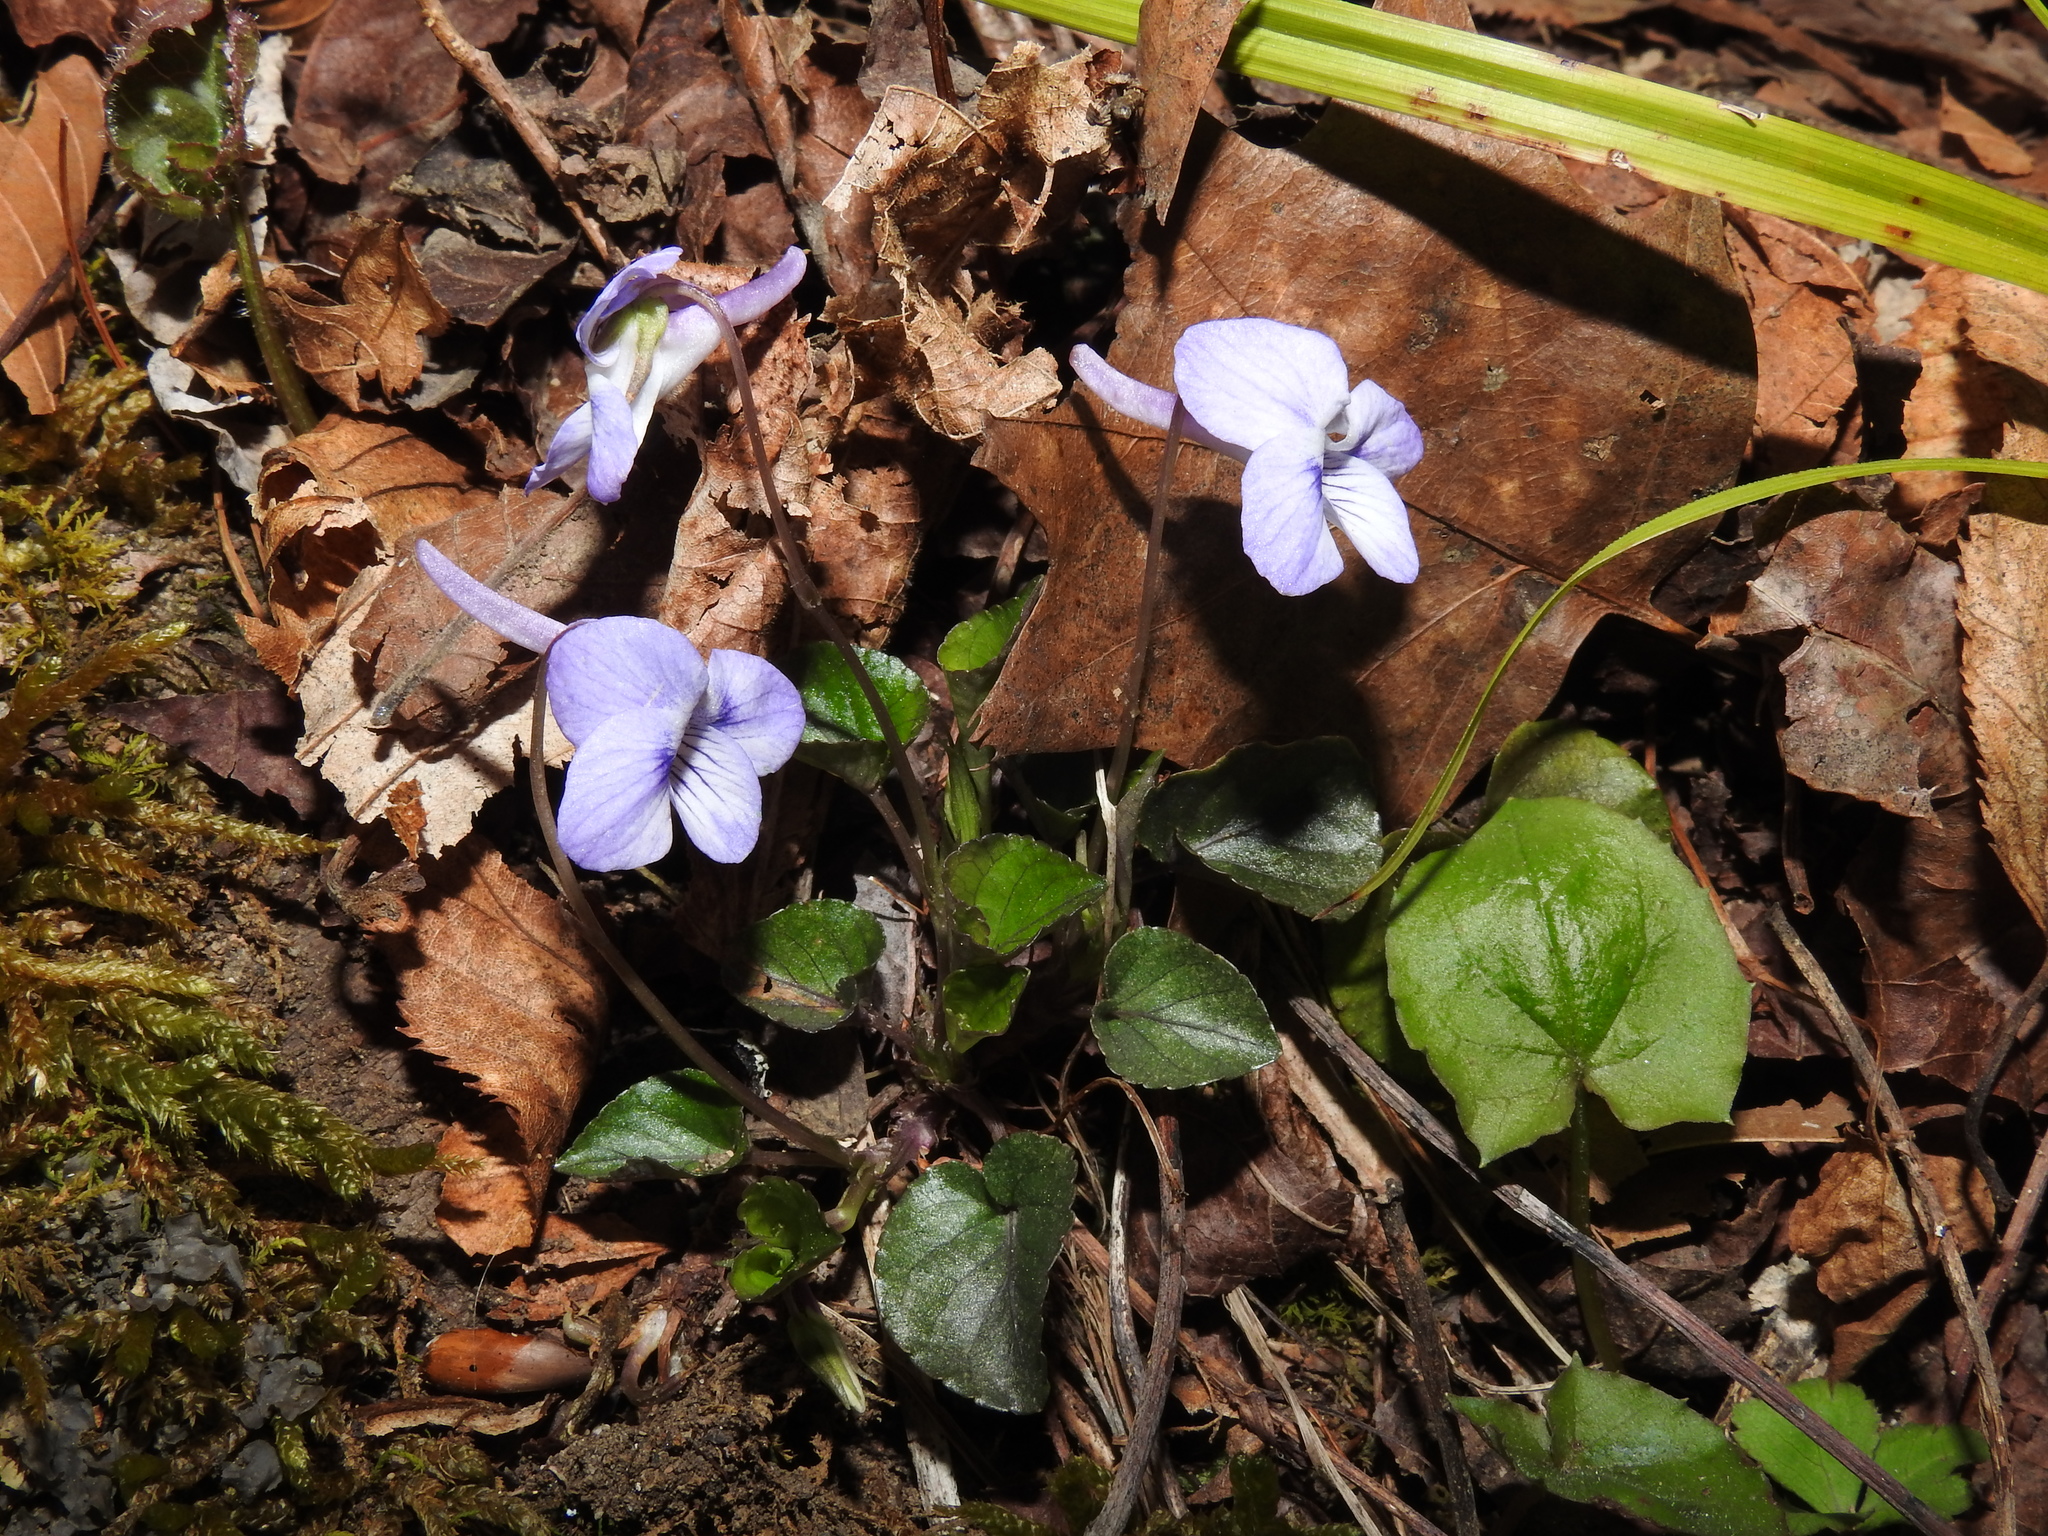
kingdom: Plantae
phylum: Tracheophyta
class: Magnoliopsida
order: Malpighiales
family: Violaceae
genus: Viola
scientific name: Viola rostrata
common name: Long-spur violet
